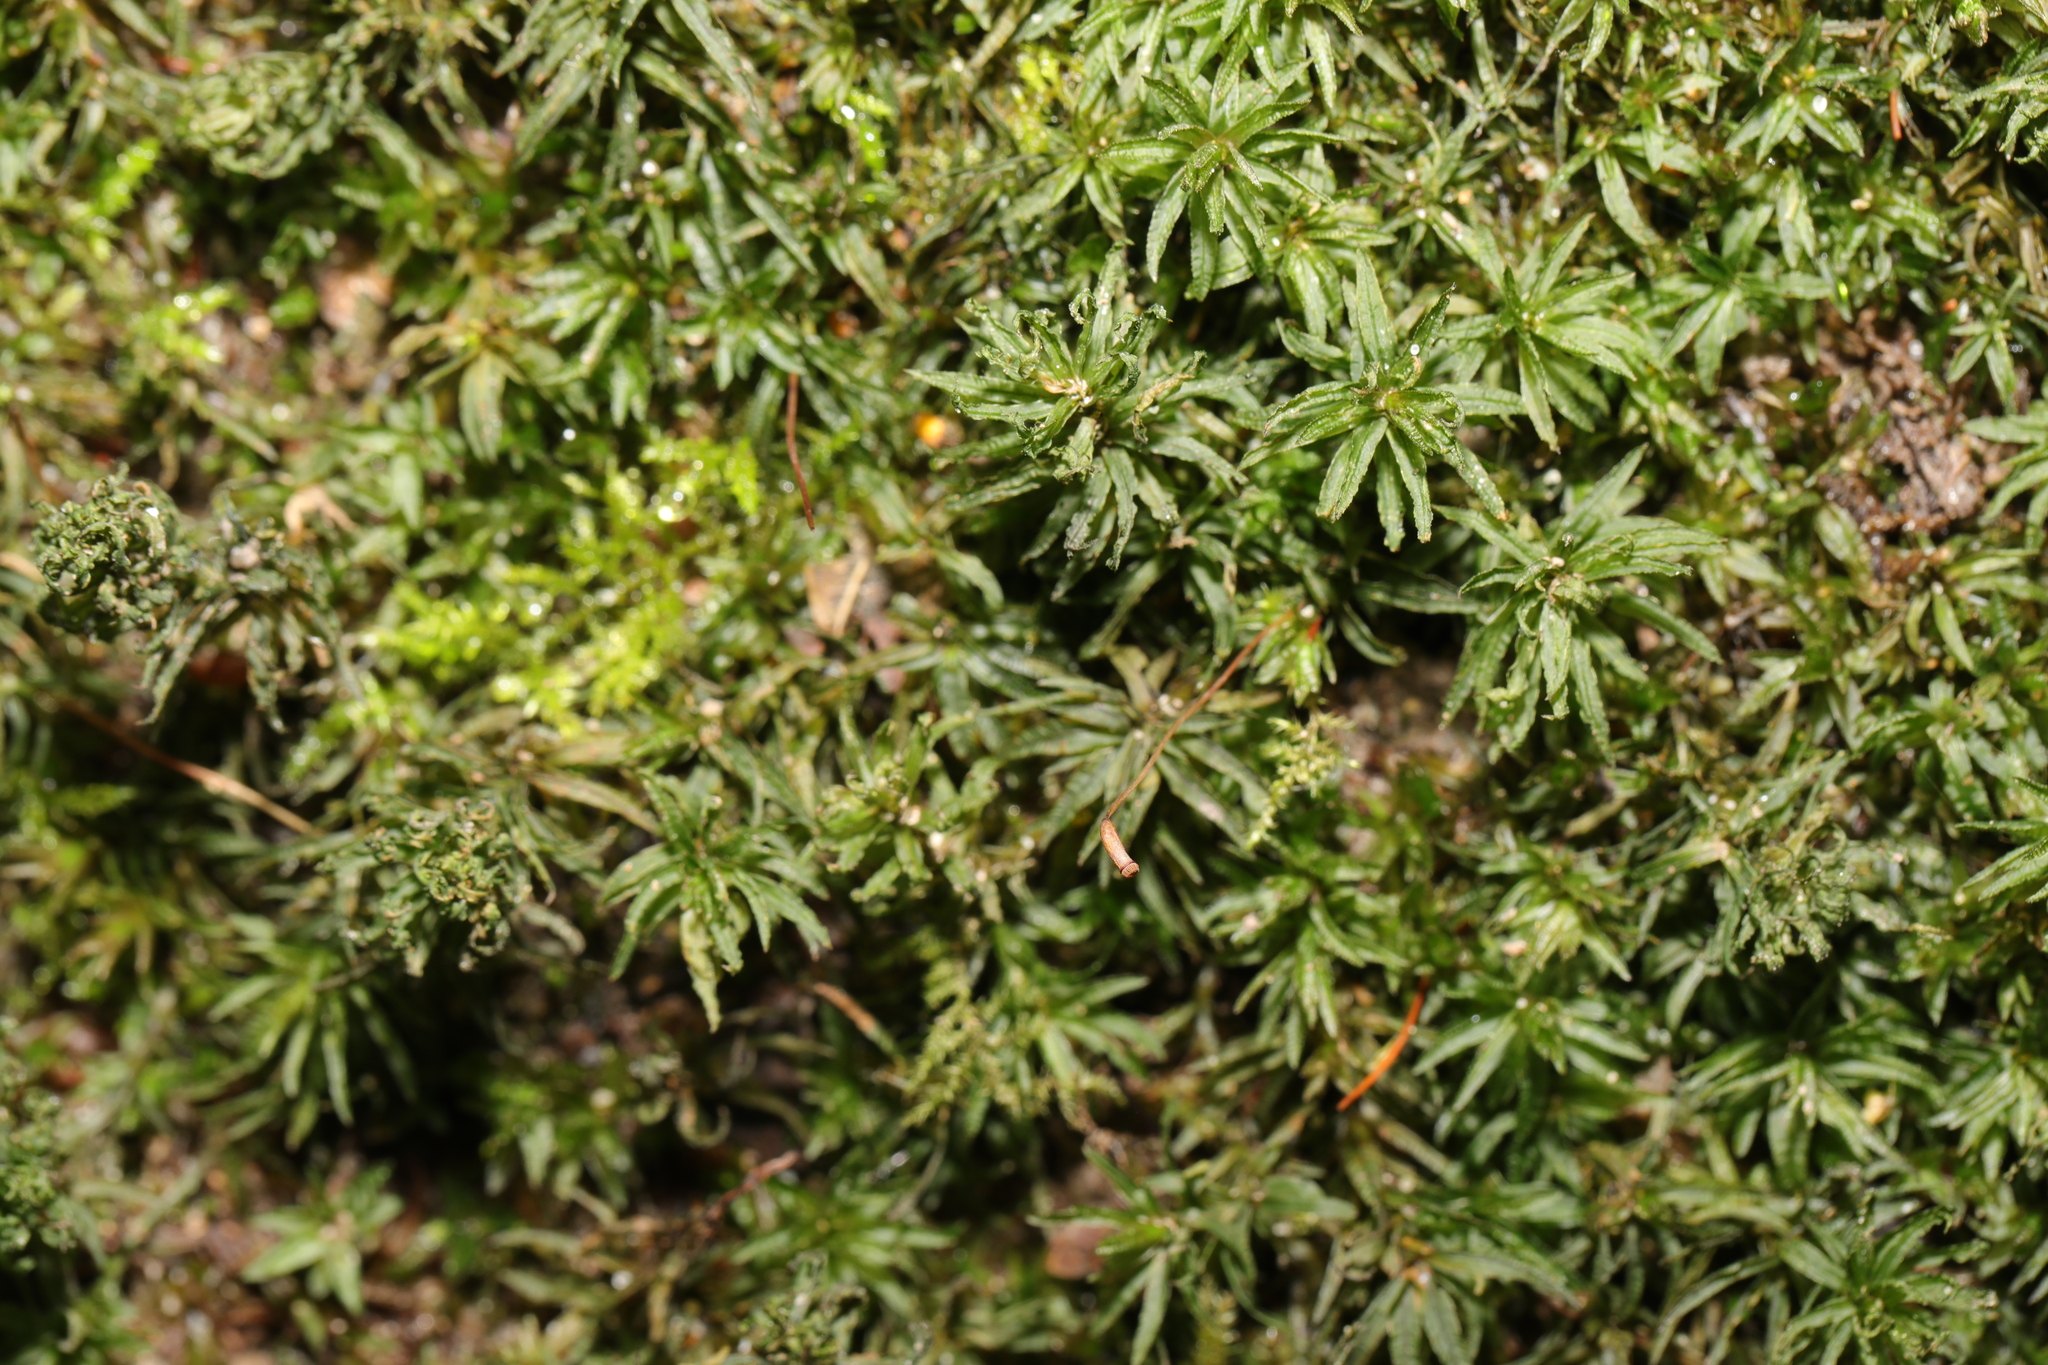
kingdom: Plantae
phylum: Bryophyta
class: Polytrichopsida
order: Polytrichales
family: Polytrichaceae
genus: Atrichum
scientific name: Atrichum undulatum
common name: Common smoothcap
